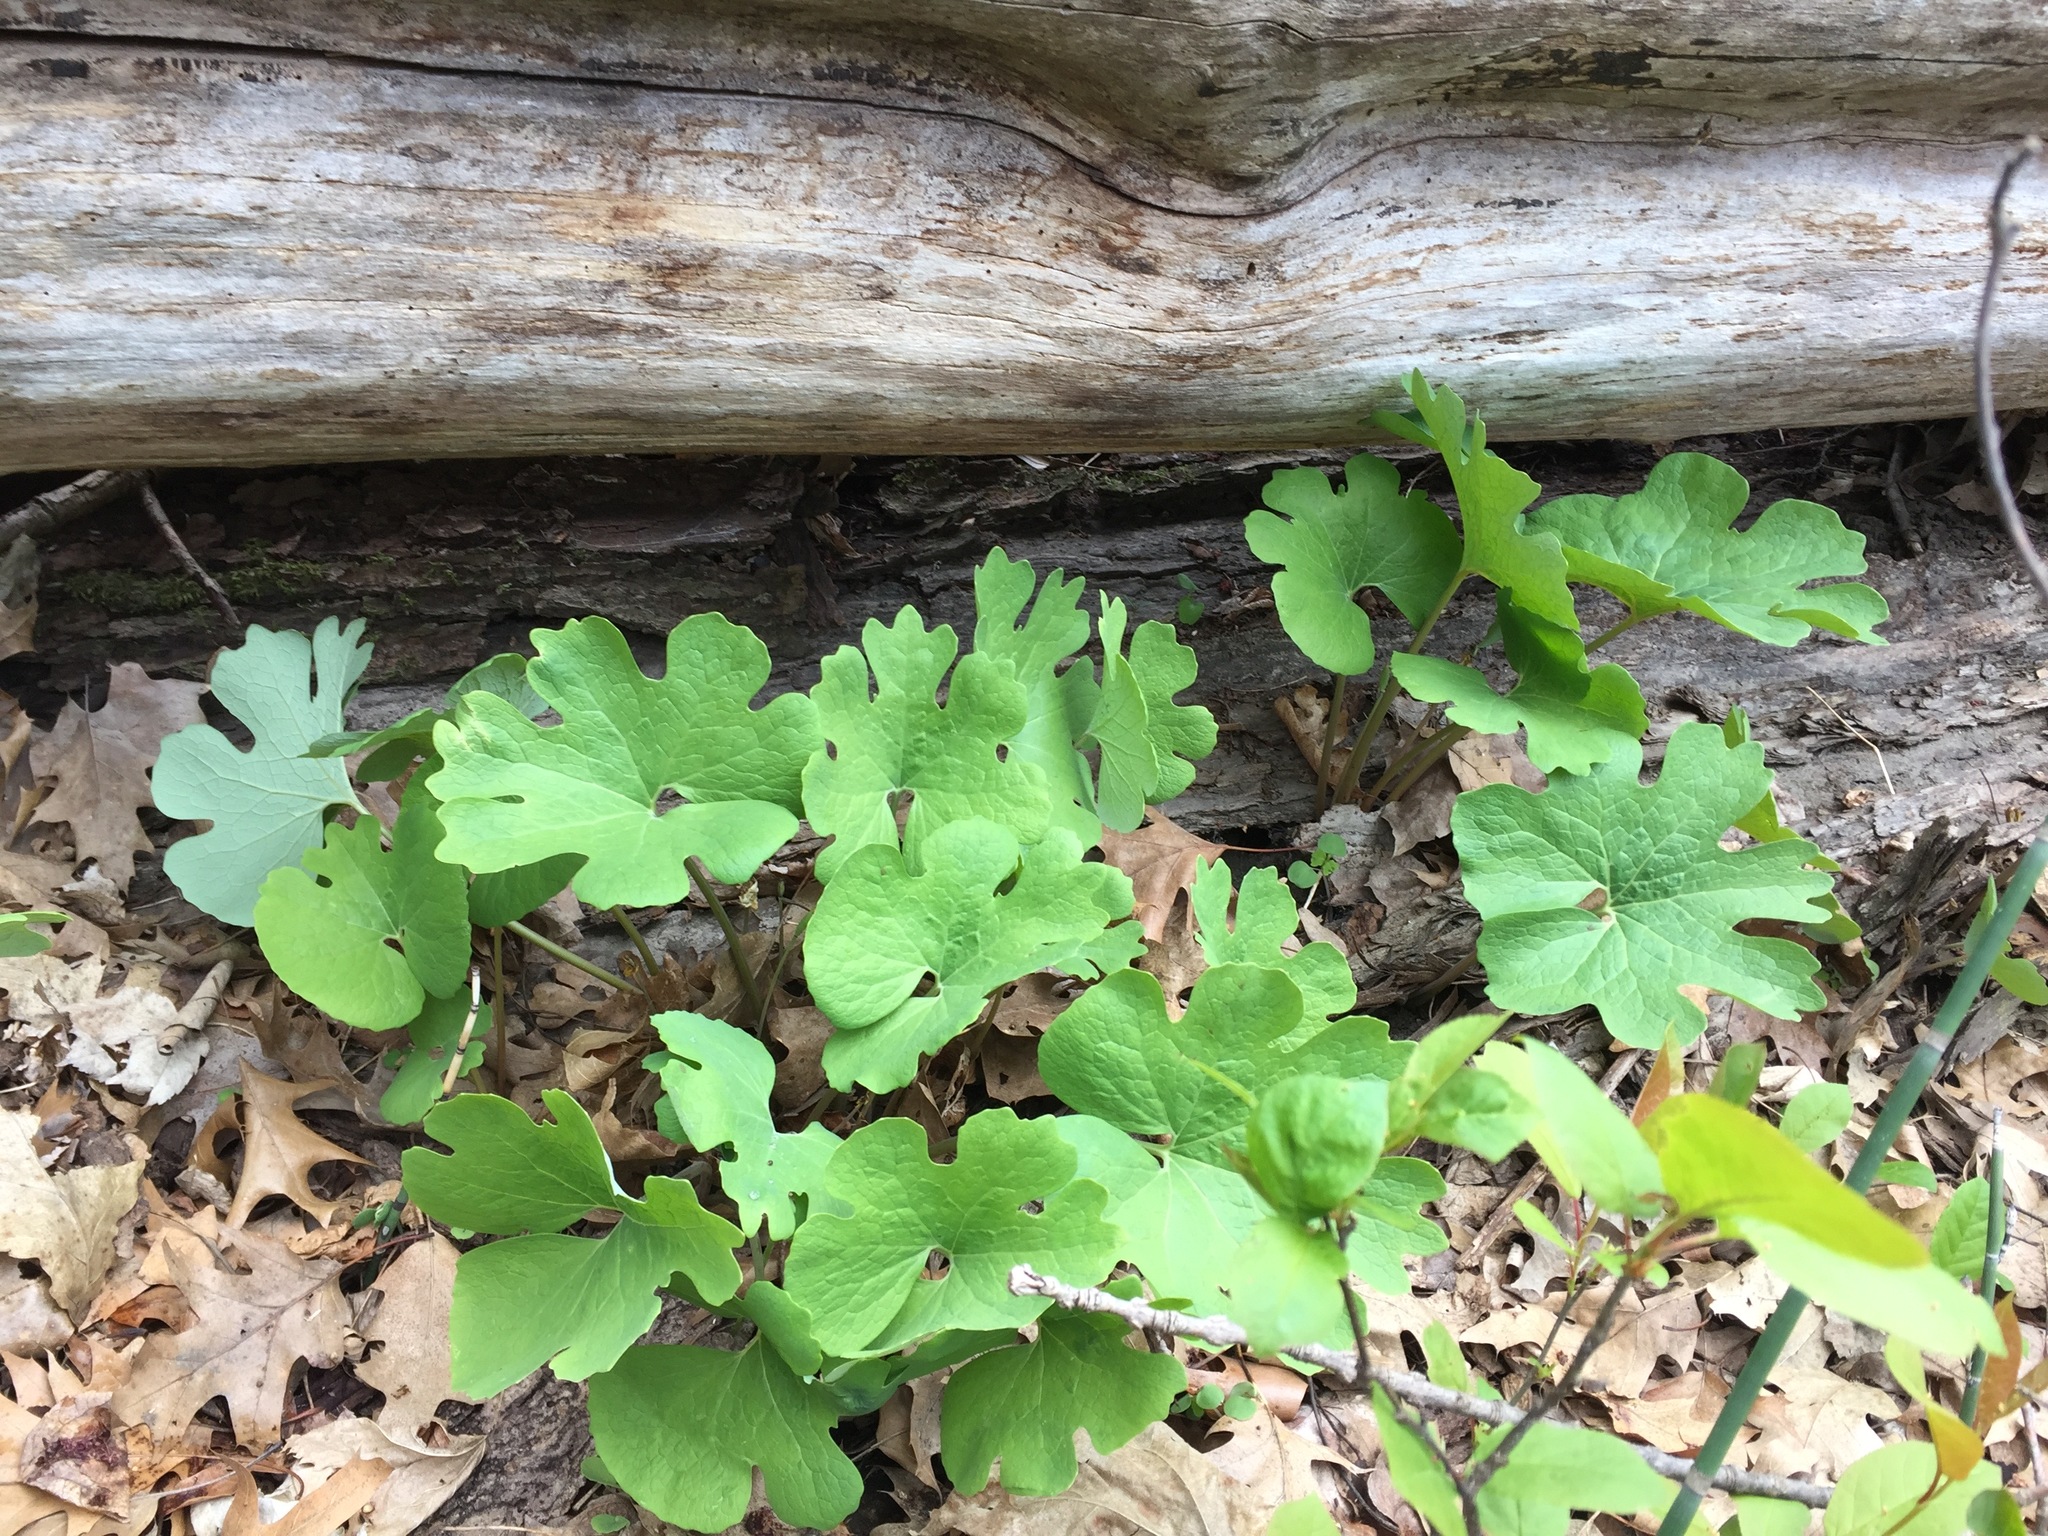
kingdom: Plantae
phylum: Tracheophyta
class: Magnoliopsida
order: Ranunculales
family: Papaveraceae
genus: Sanguinaria
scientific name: Sanguinaria canadensis
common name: Bloodroot
